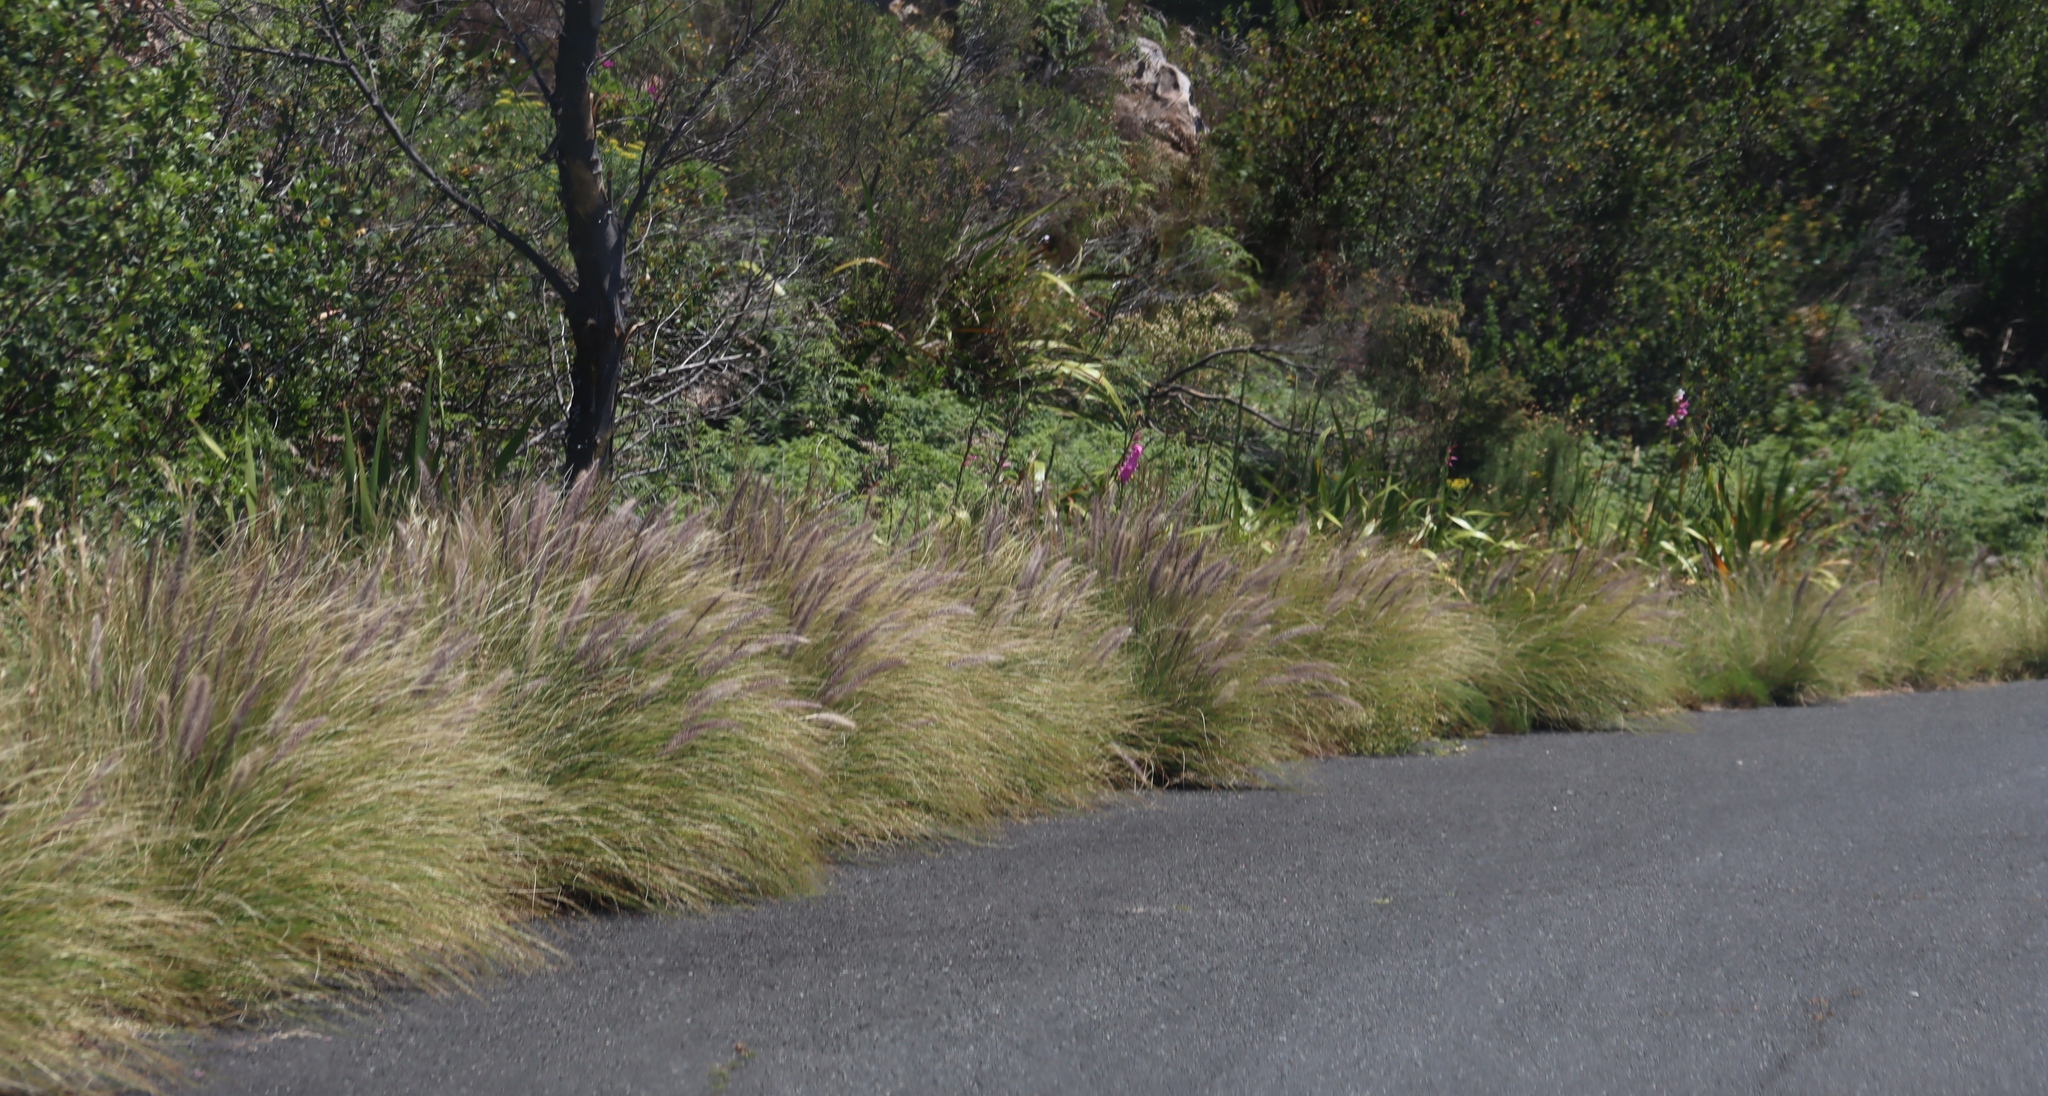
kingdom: Plantae
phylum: Tracheophyta
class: Liliopsida
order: Poales
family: Poaceae
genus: Cenchrus
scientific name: Cenchrus setaceus
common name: Crimson fountaingrass
